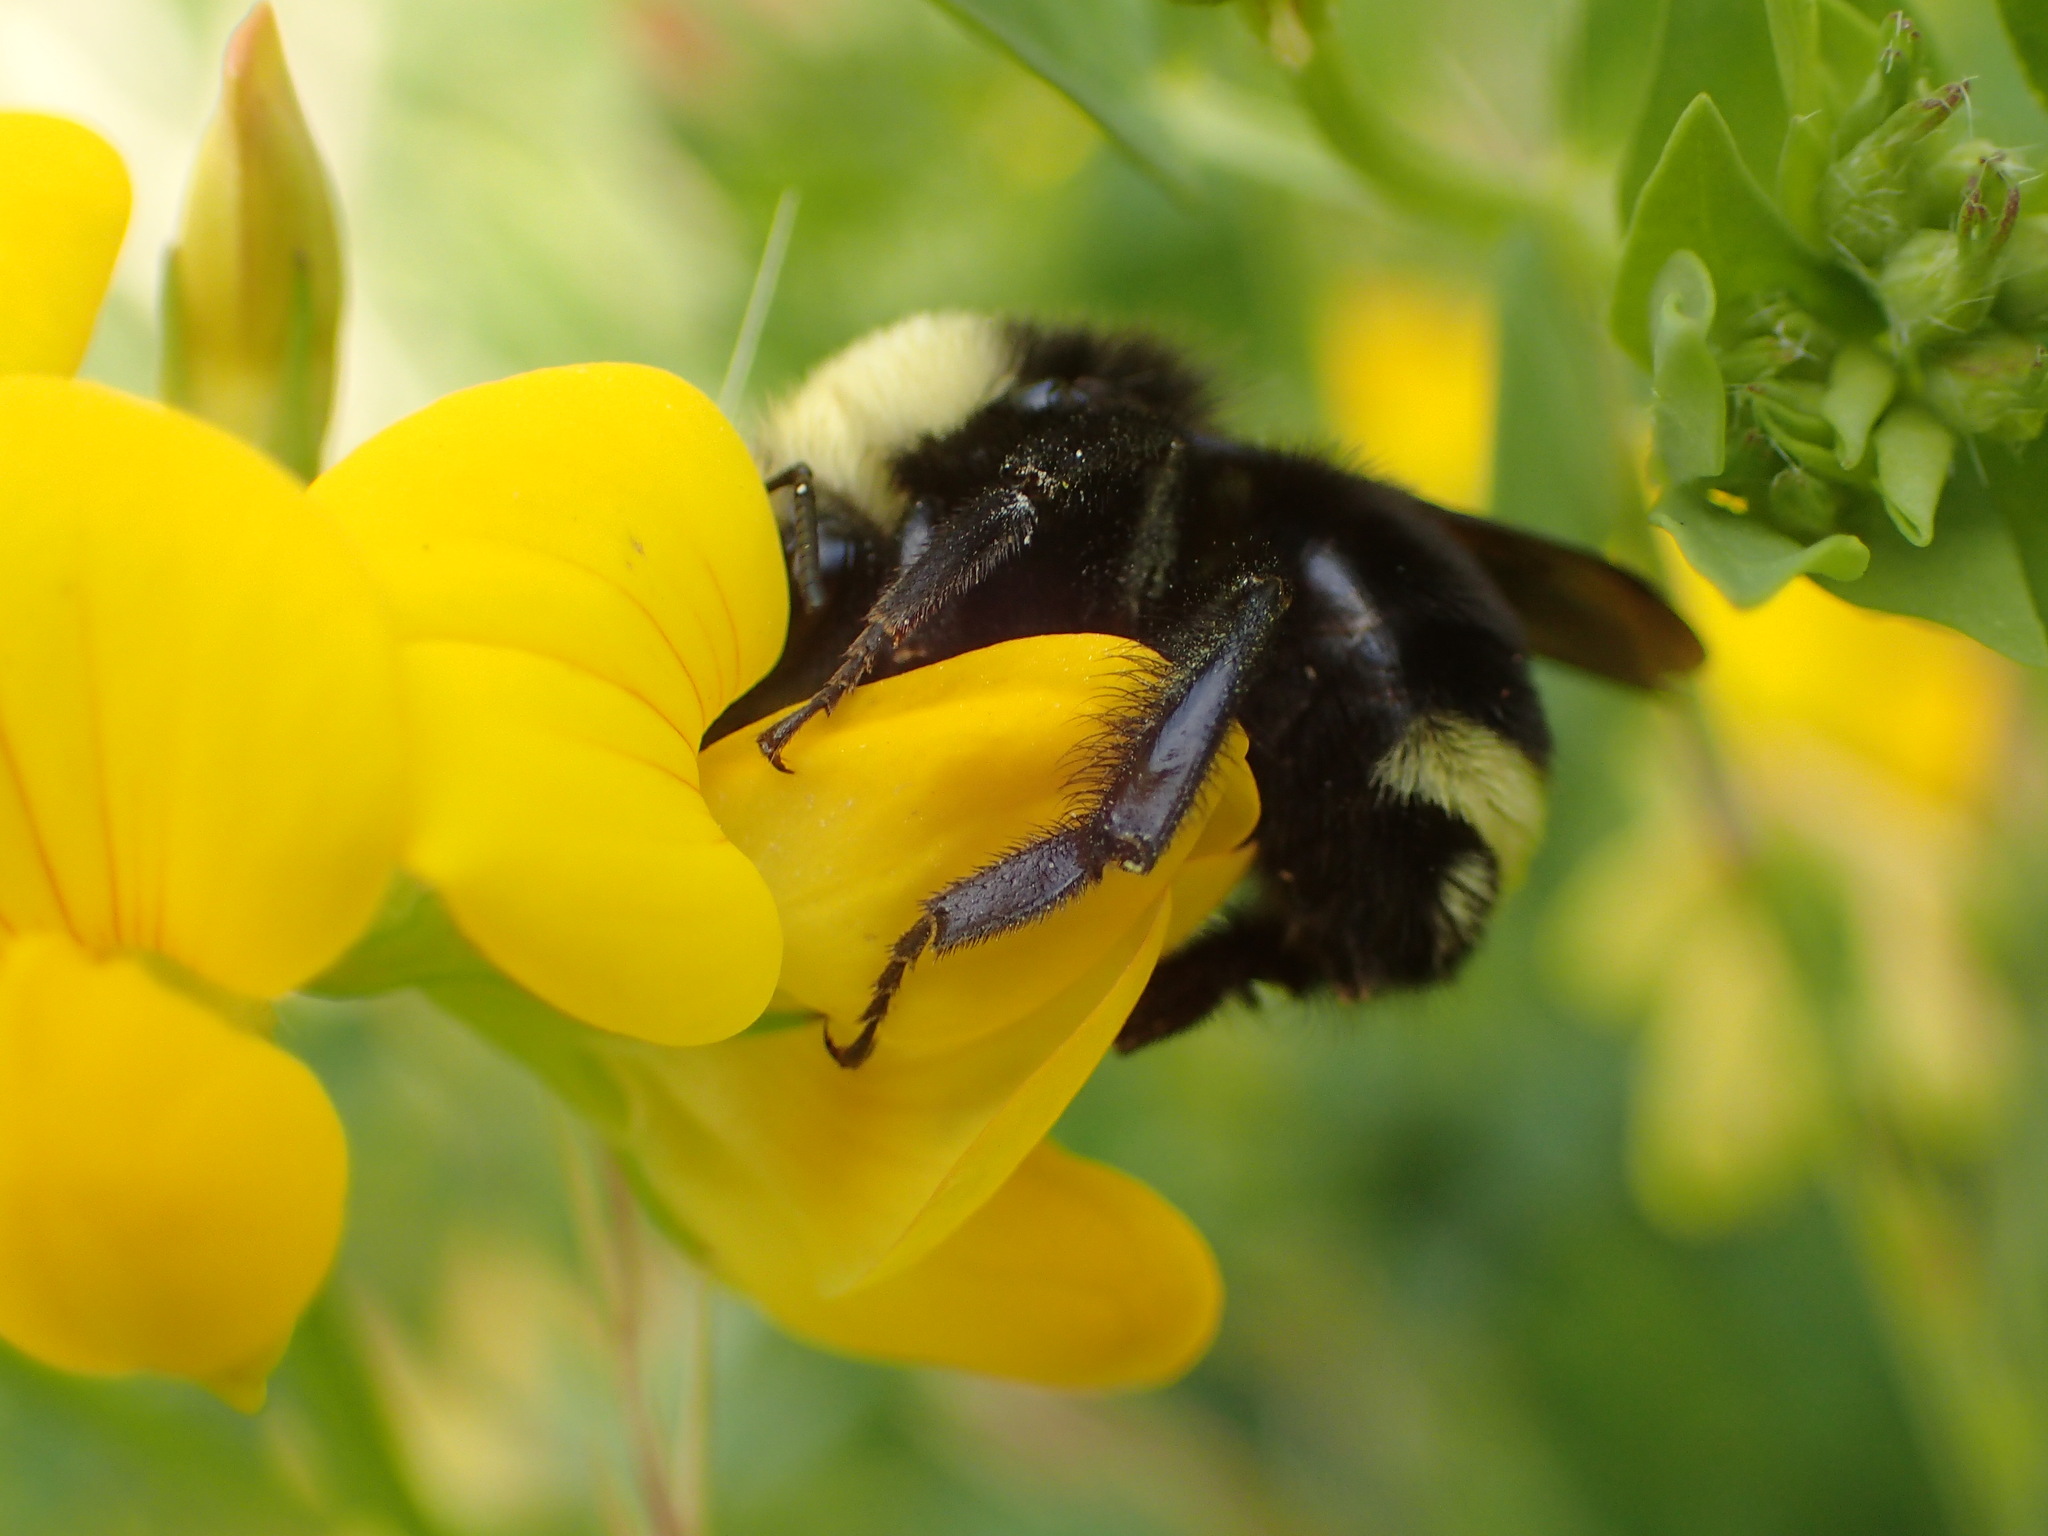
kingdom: Animalia
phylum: Arthropoda
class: Insecta
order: Hymenoptera
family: Apidae
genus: Bombus
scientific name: Bombus vosnesenskii
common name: Vosnesensky bumble bee
